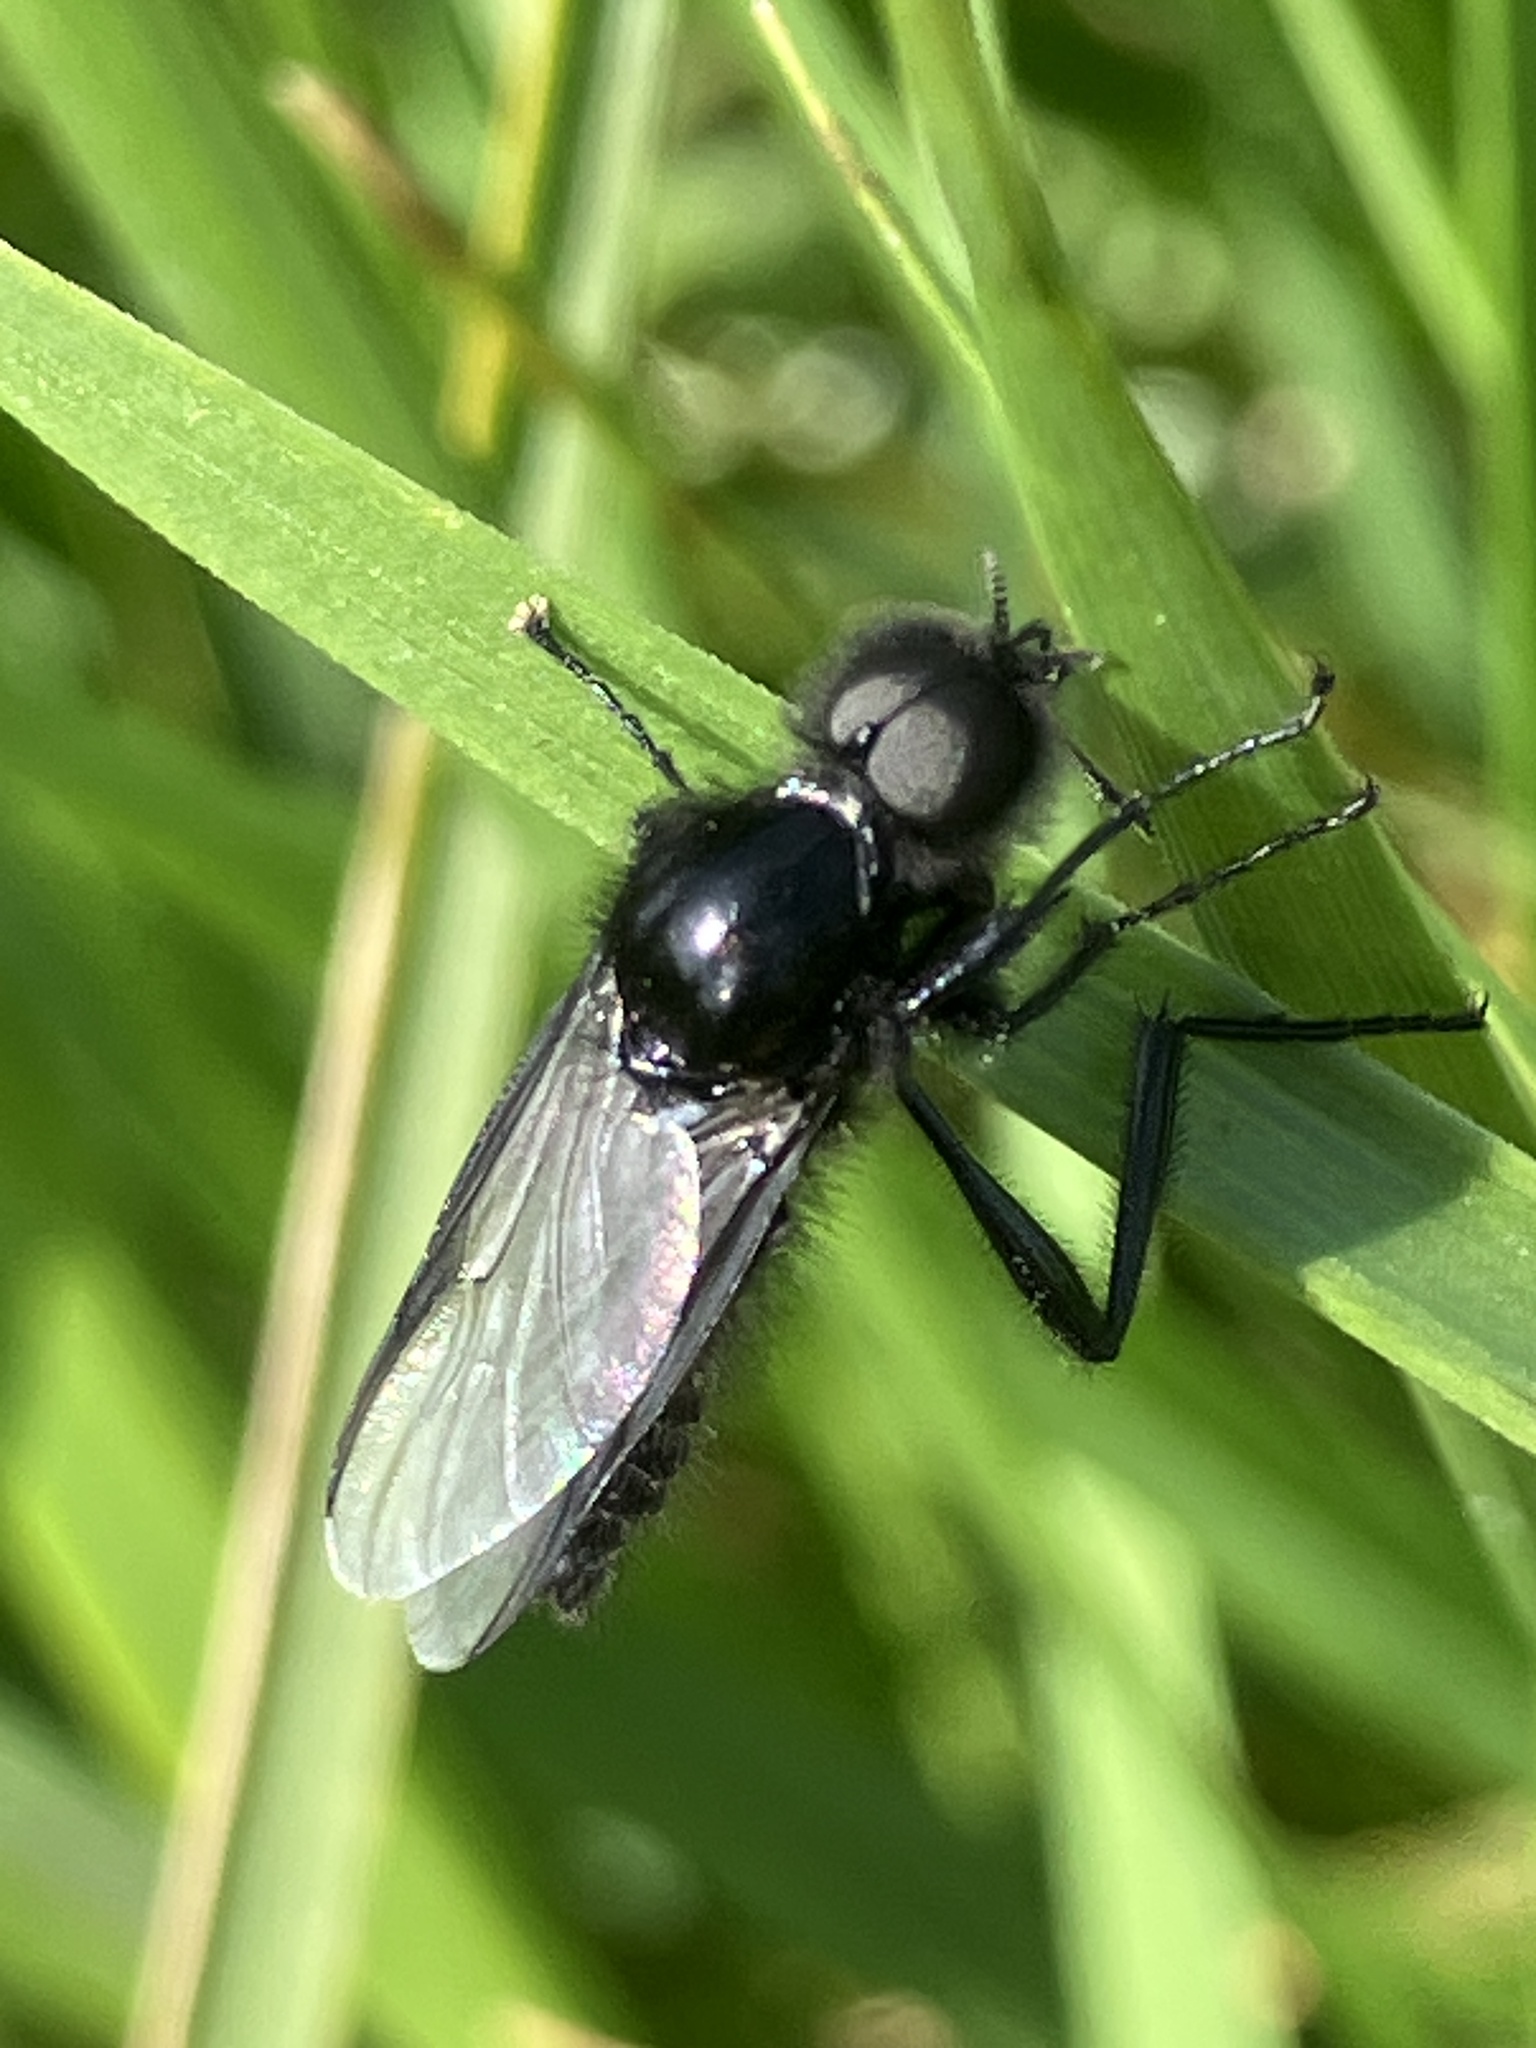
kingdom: Animalia
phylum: Arthropoda
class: Insecta
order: Diptera
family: Bibionidae
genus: Bibio
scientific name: Bibio marci
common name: St marks fly
